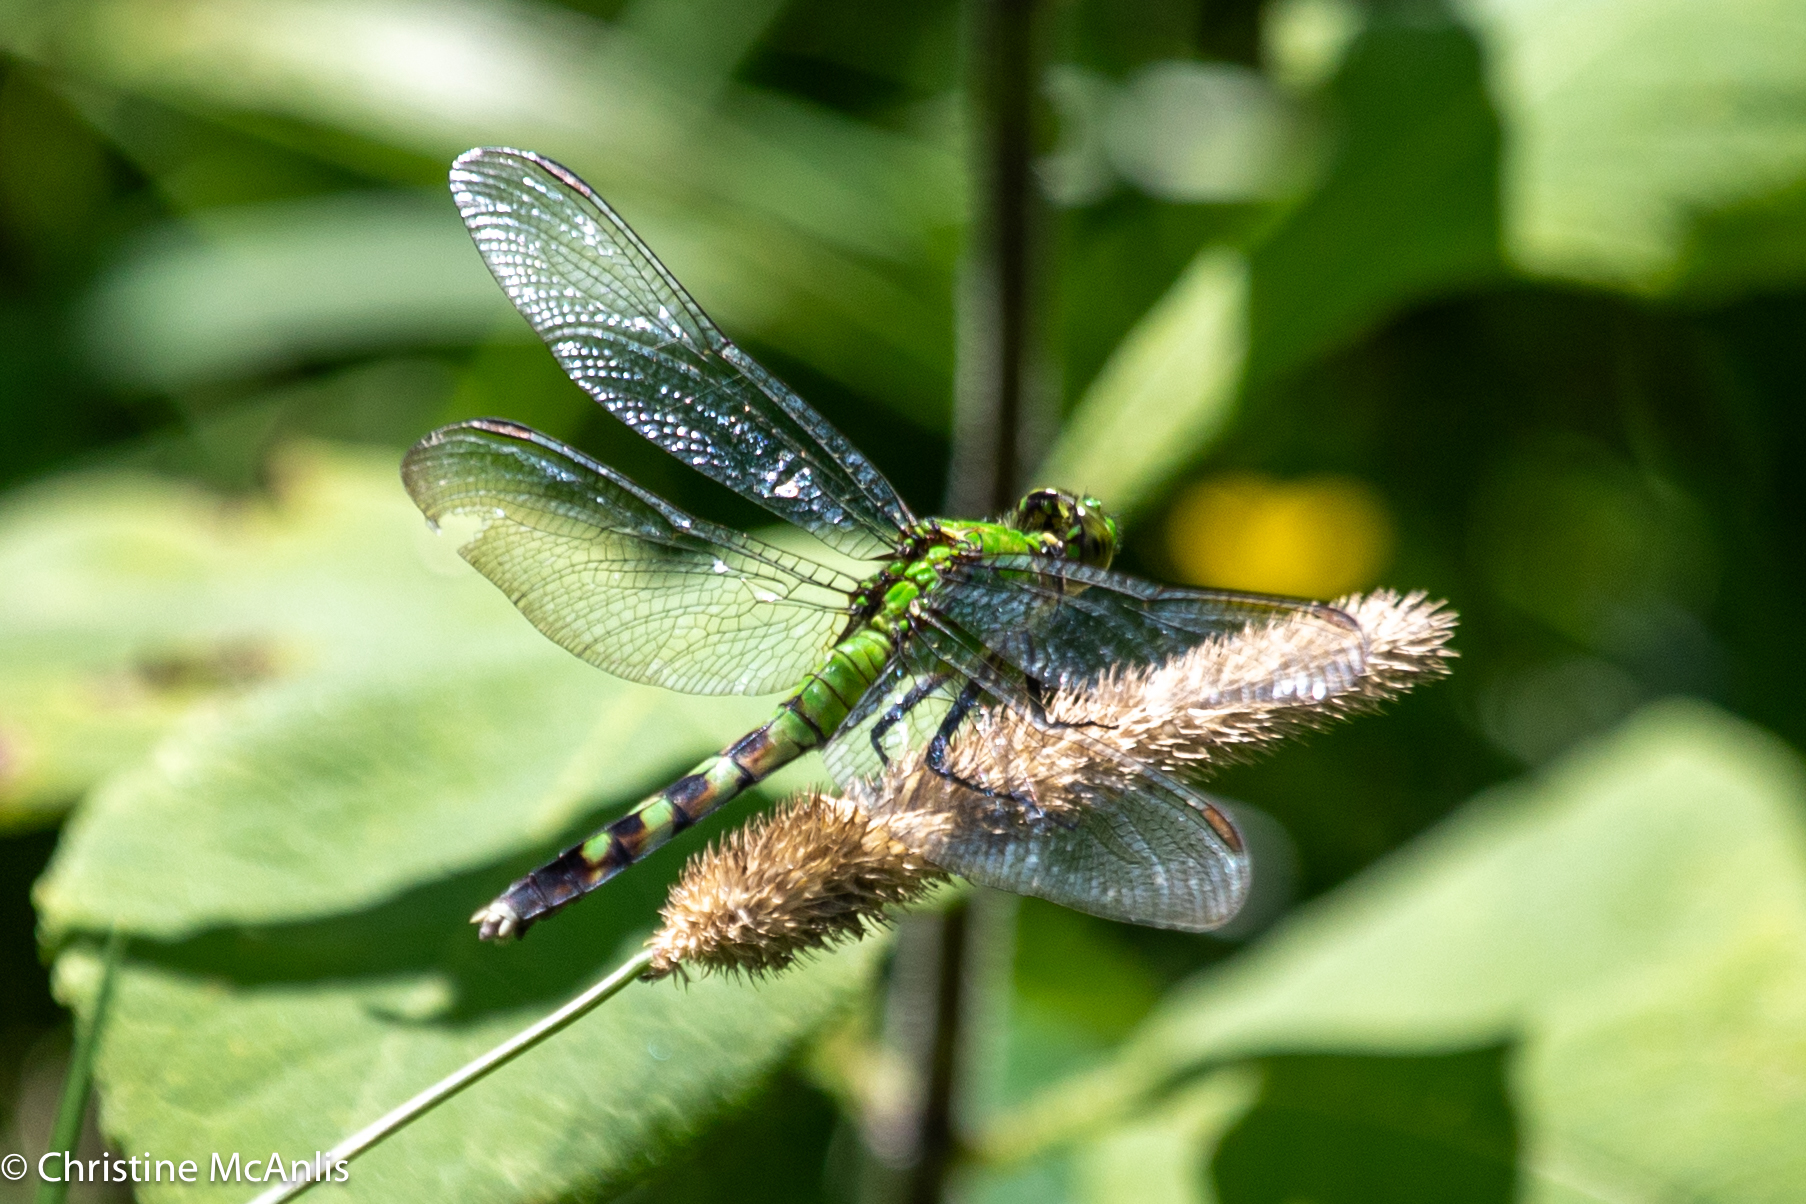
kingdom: Animalia
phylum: Arthropoda
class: Insecta
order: Odonata
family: Libellulidae
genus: Erythemis
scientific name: Erythemis simplicicollis
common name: Eastern pondhawk
